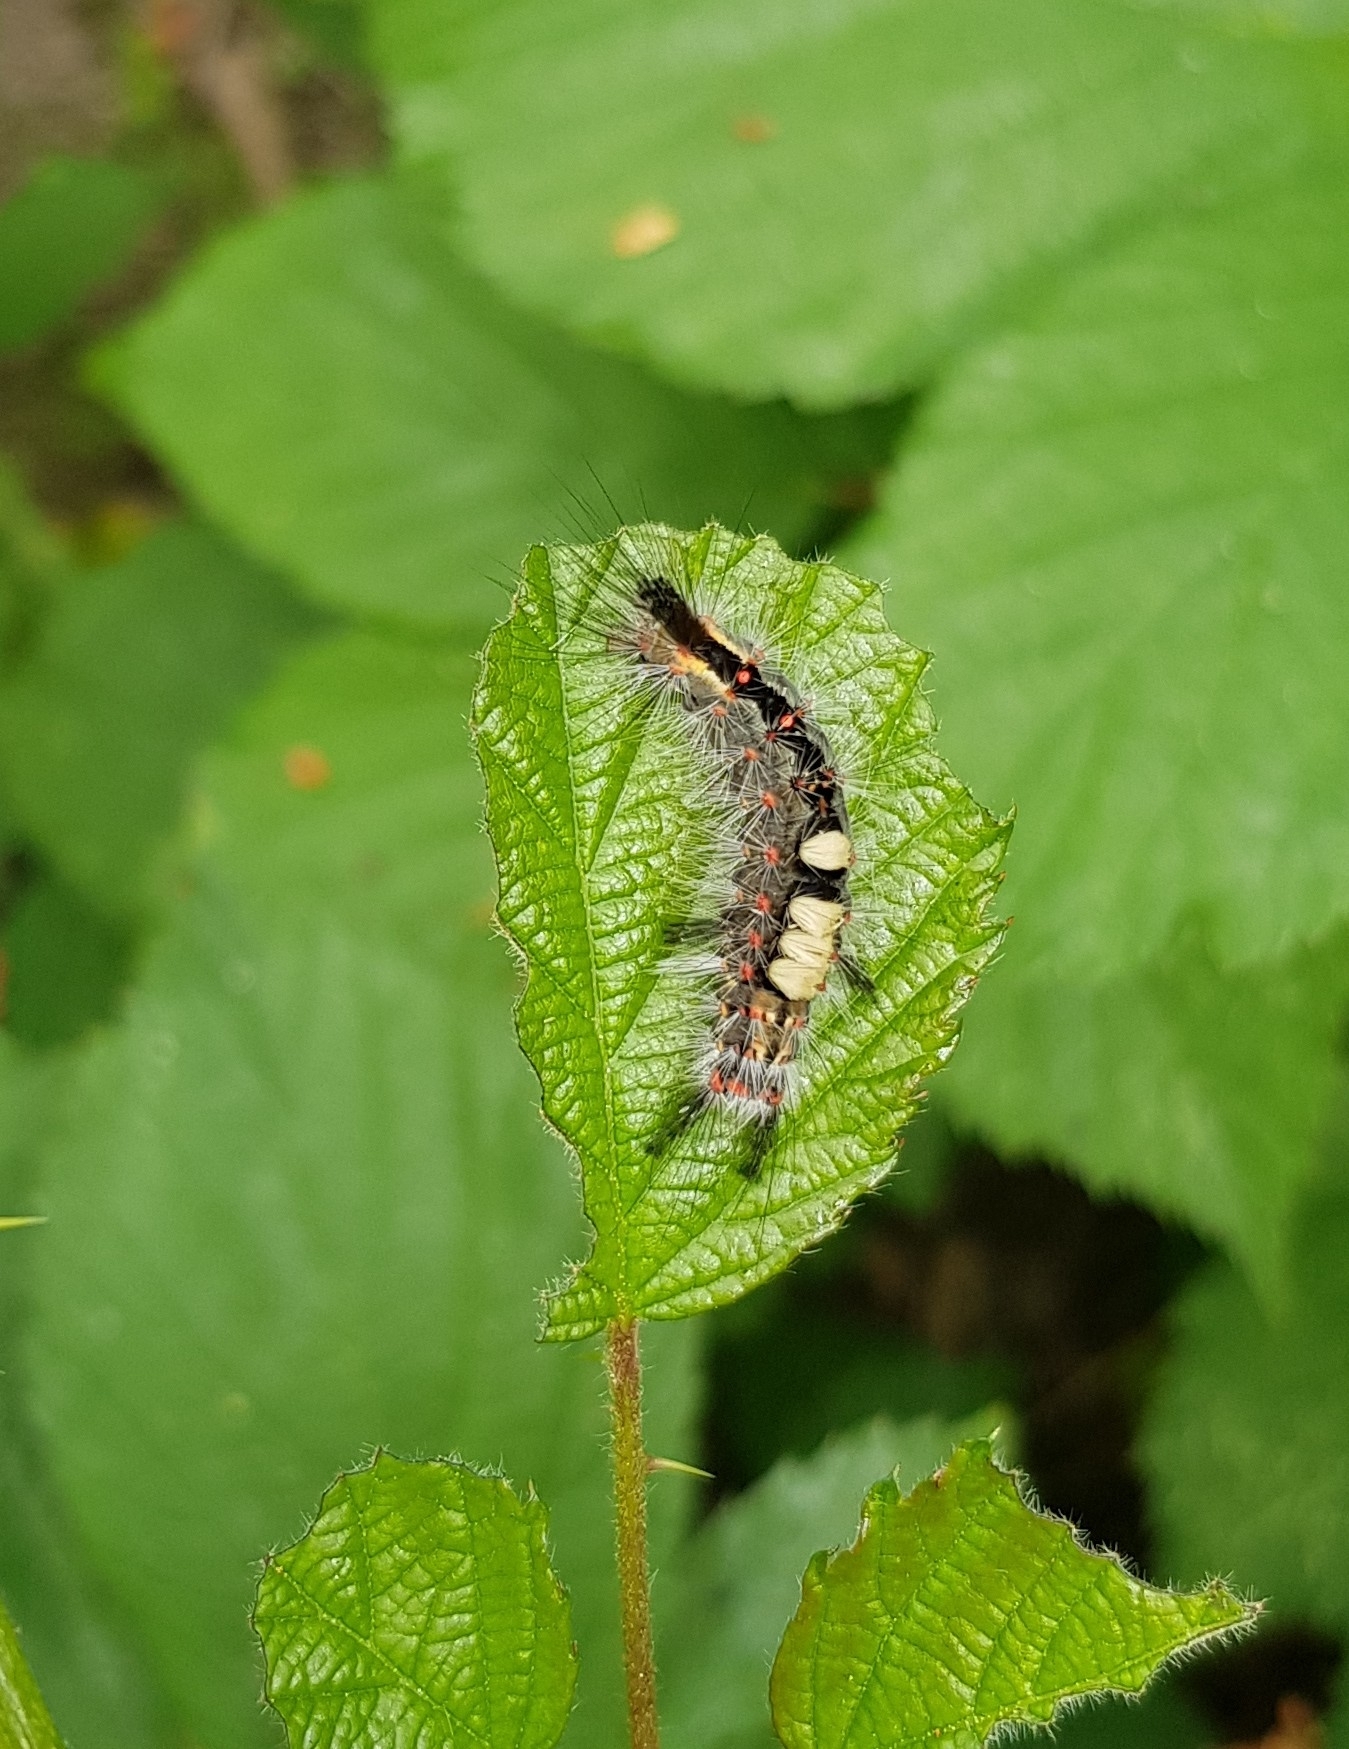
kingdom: Animalia
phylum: Arthropoda
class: Insecta
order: Lepidoptera
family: Erebidae
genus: Orgyia
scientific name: Orgyia antiqua
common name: Vapourer
